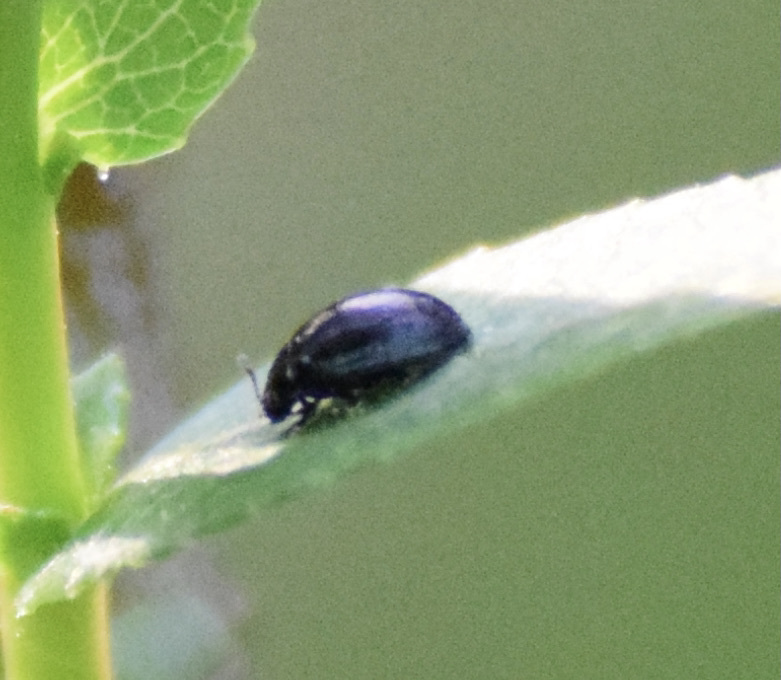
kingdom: Animalia
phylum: Arthropoda
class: Insecta
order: Coleoptera
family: Chrysomelidae
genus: Plagiodera
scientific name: Plagiodera versicolora
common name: Imported willow leaf beetle
